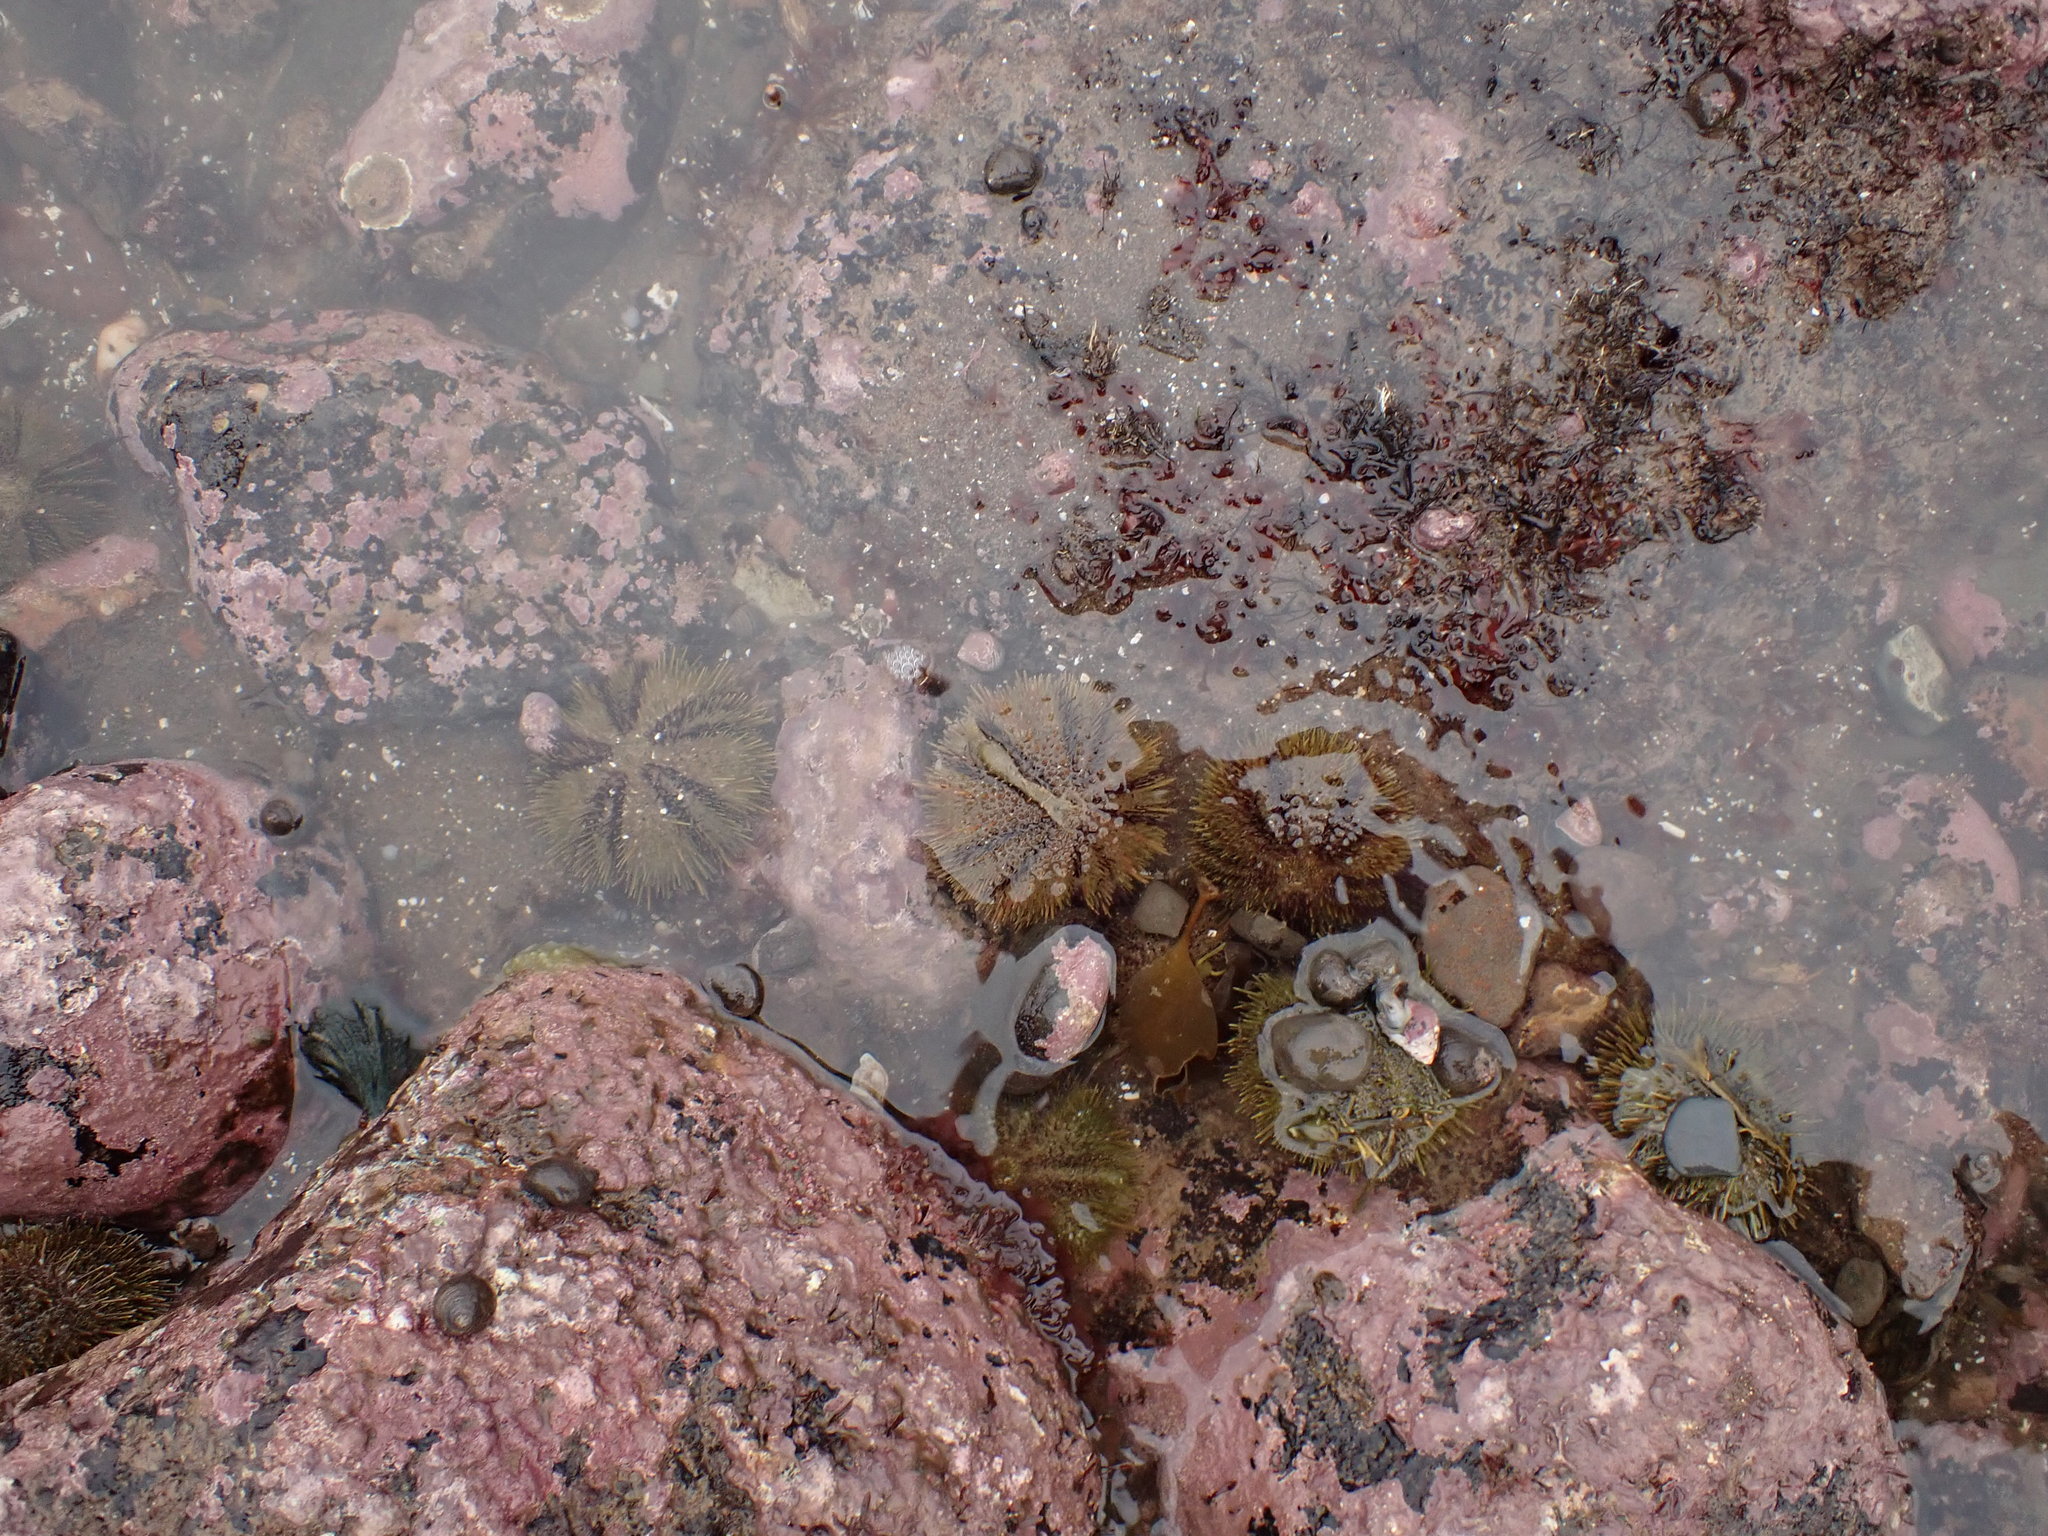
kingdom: Animalia
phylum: Echinodermata
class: Echinoidea
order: Camarodonta
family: Strongylocentrotidae
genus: Strongylocentrotus
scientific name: Strongylocentrotus droebachiensis
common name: Northern sea urchin
